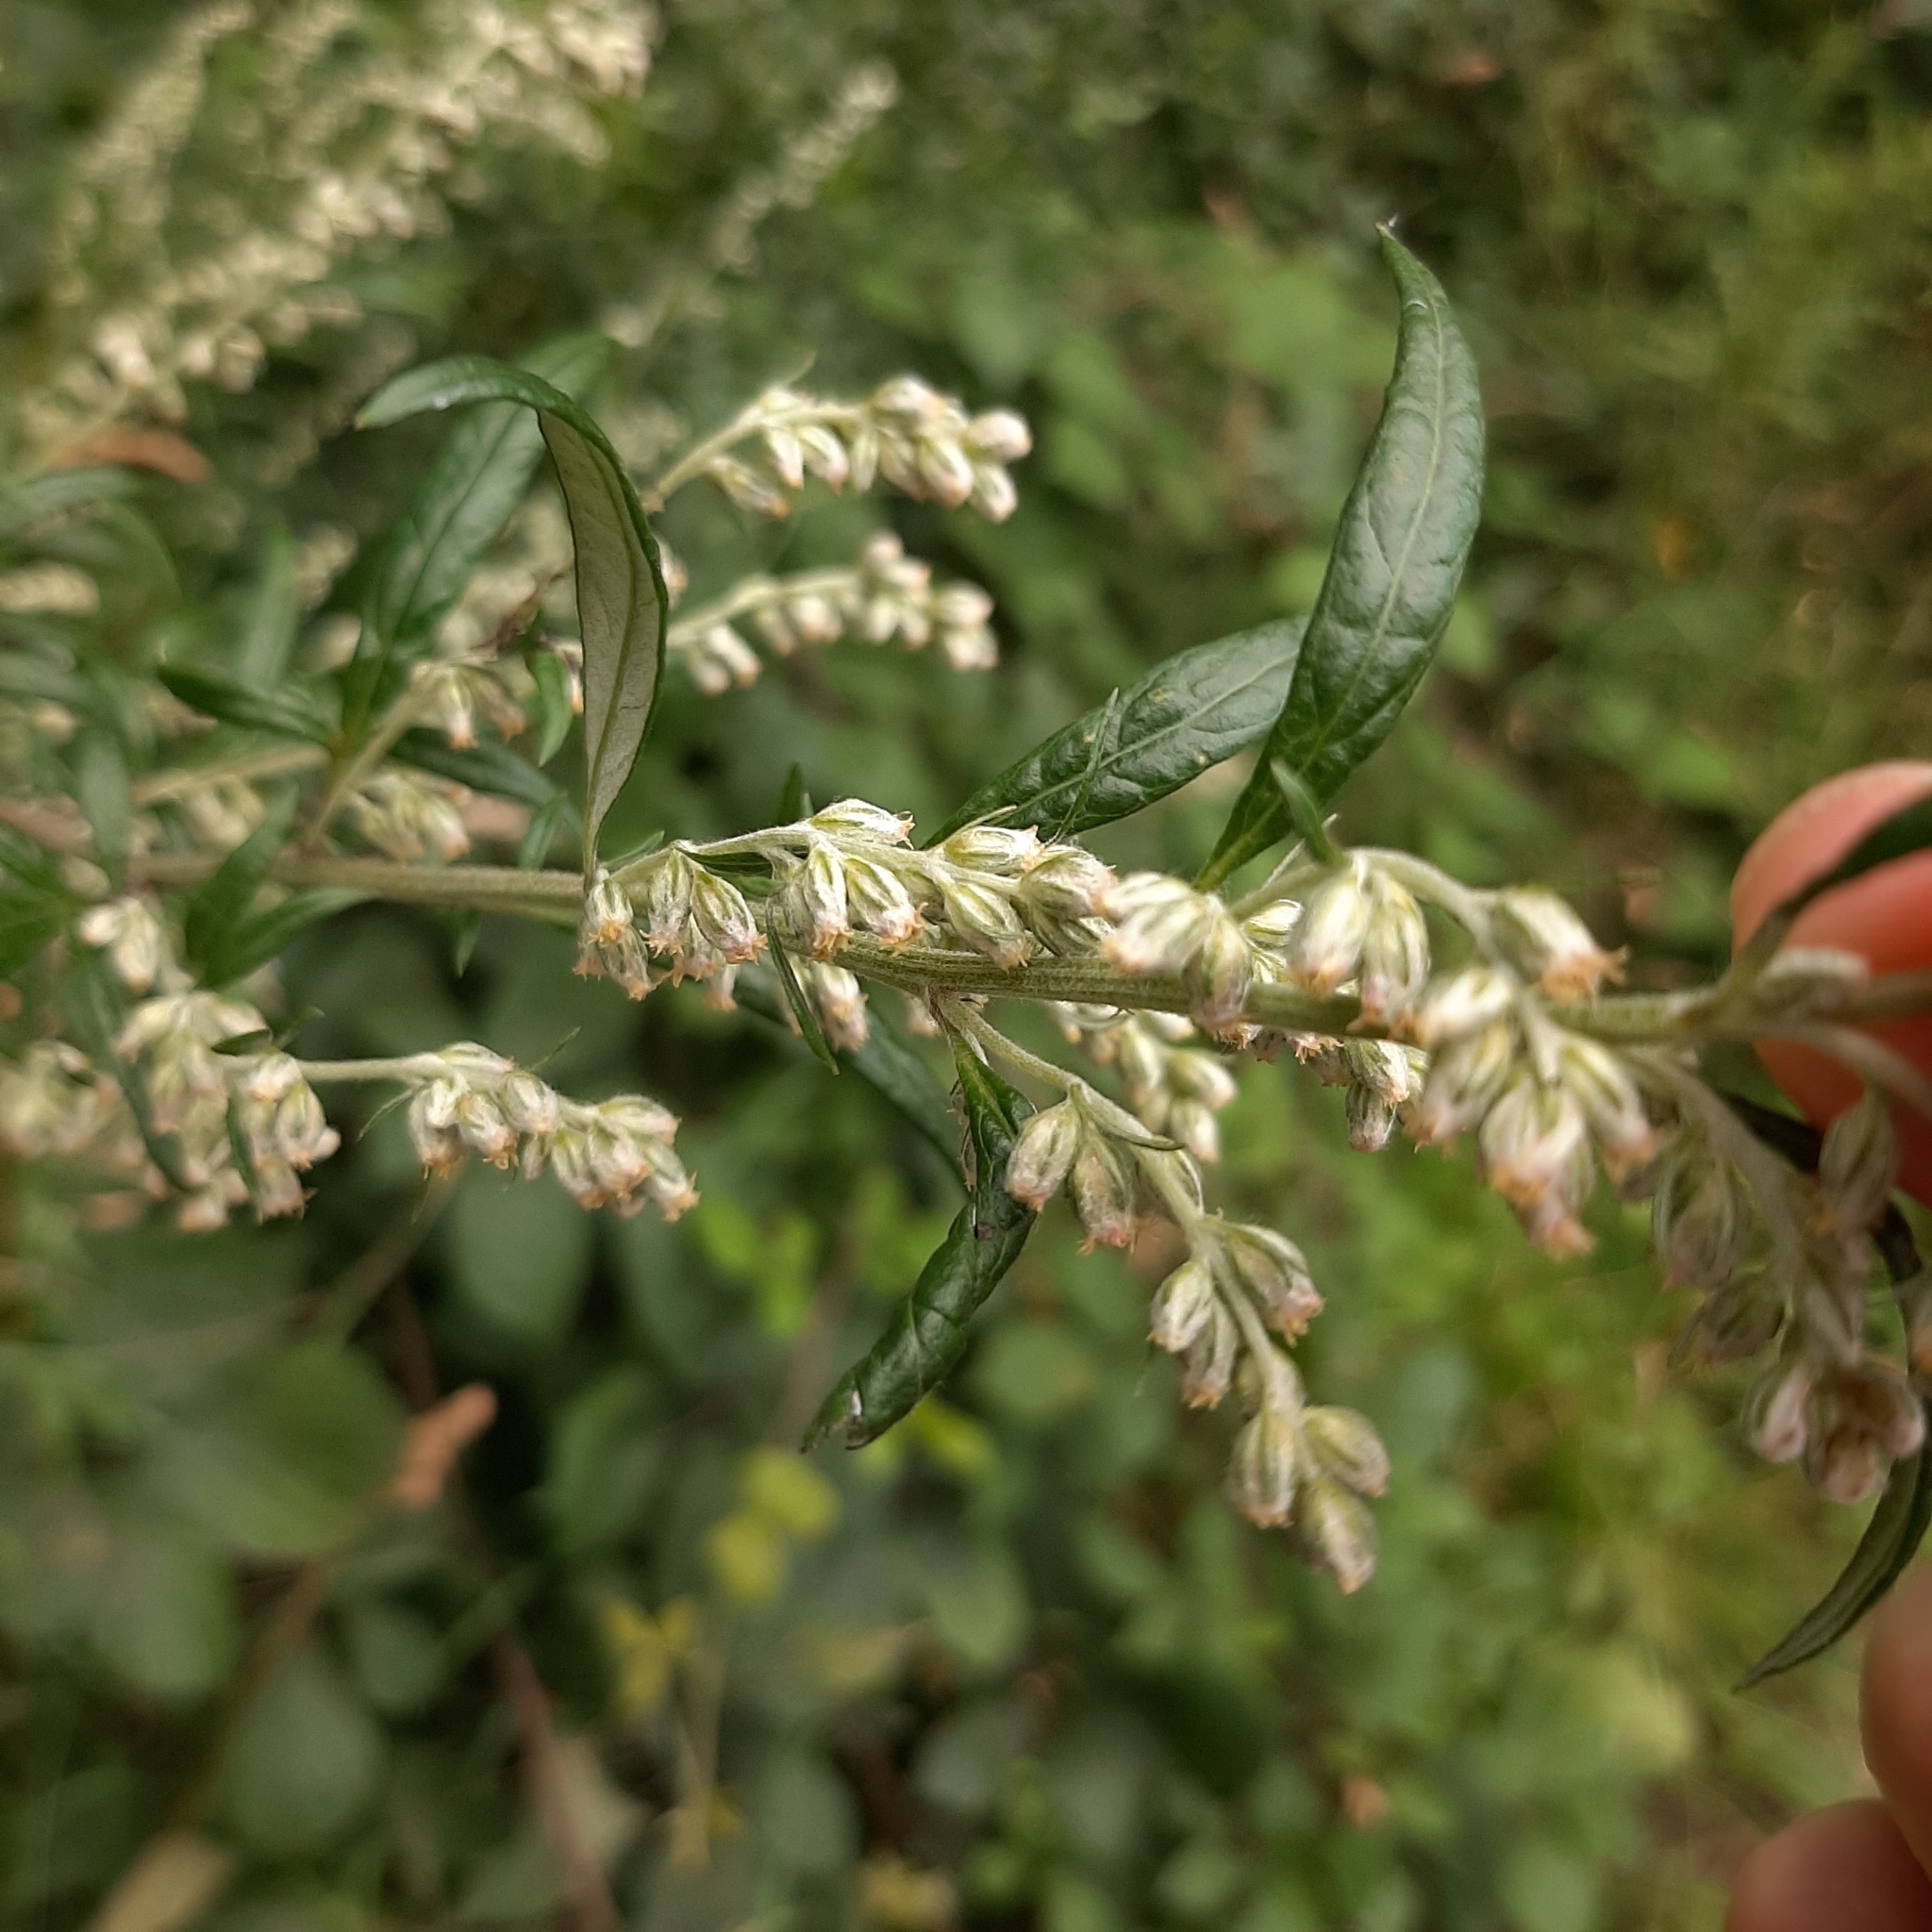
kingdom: Plantae
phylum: Tracheophyta
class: Magnoliopsida
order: Asterales
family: Asteraceae
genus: Artemisia
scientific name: Artemisia vulgaris
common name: Mugwort
